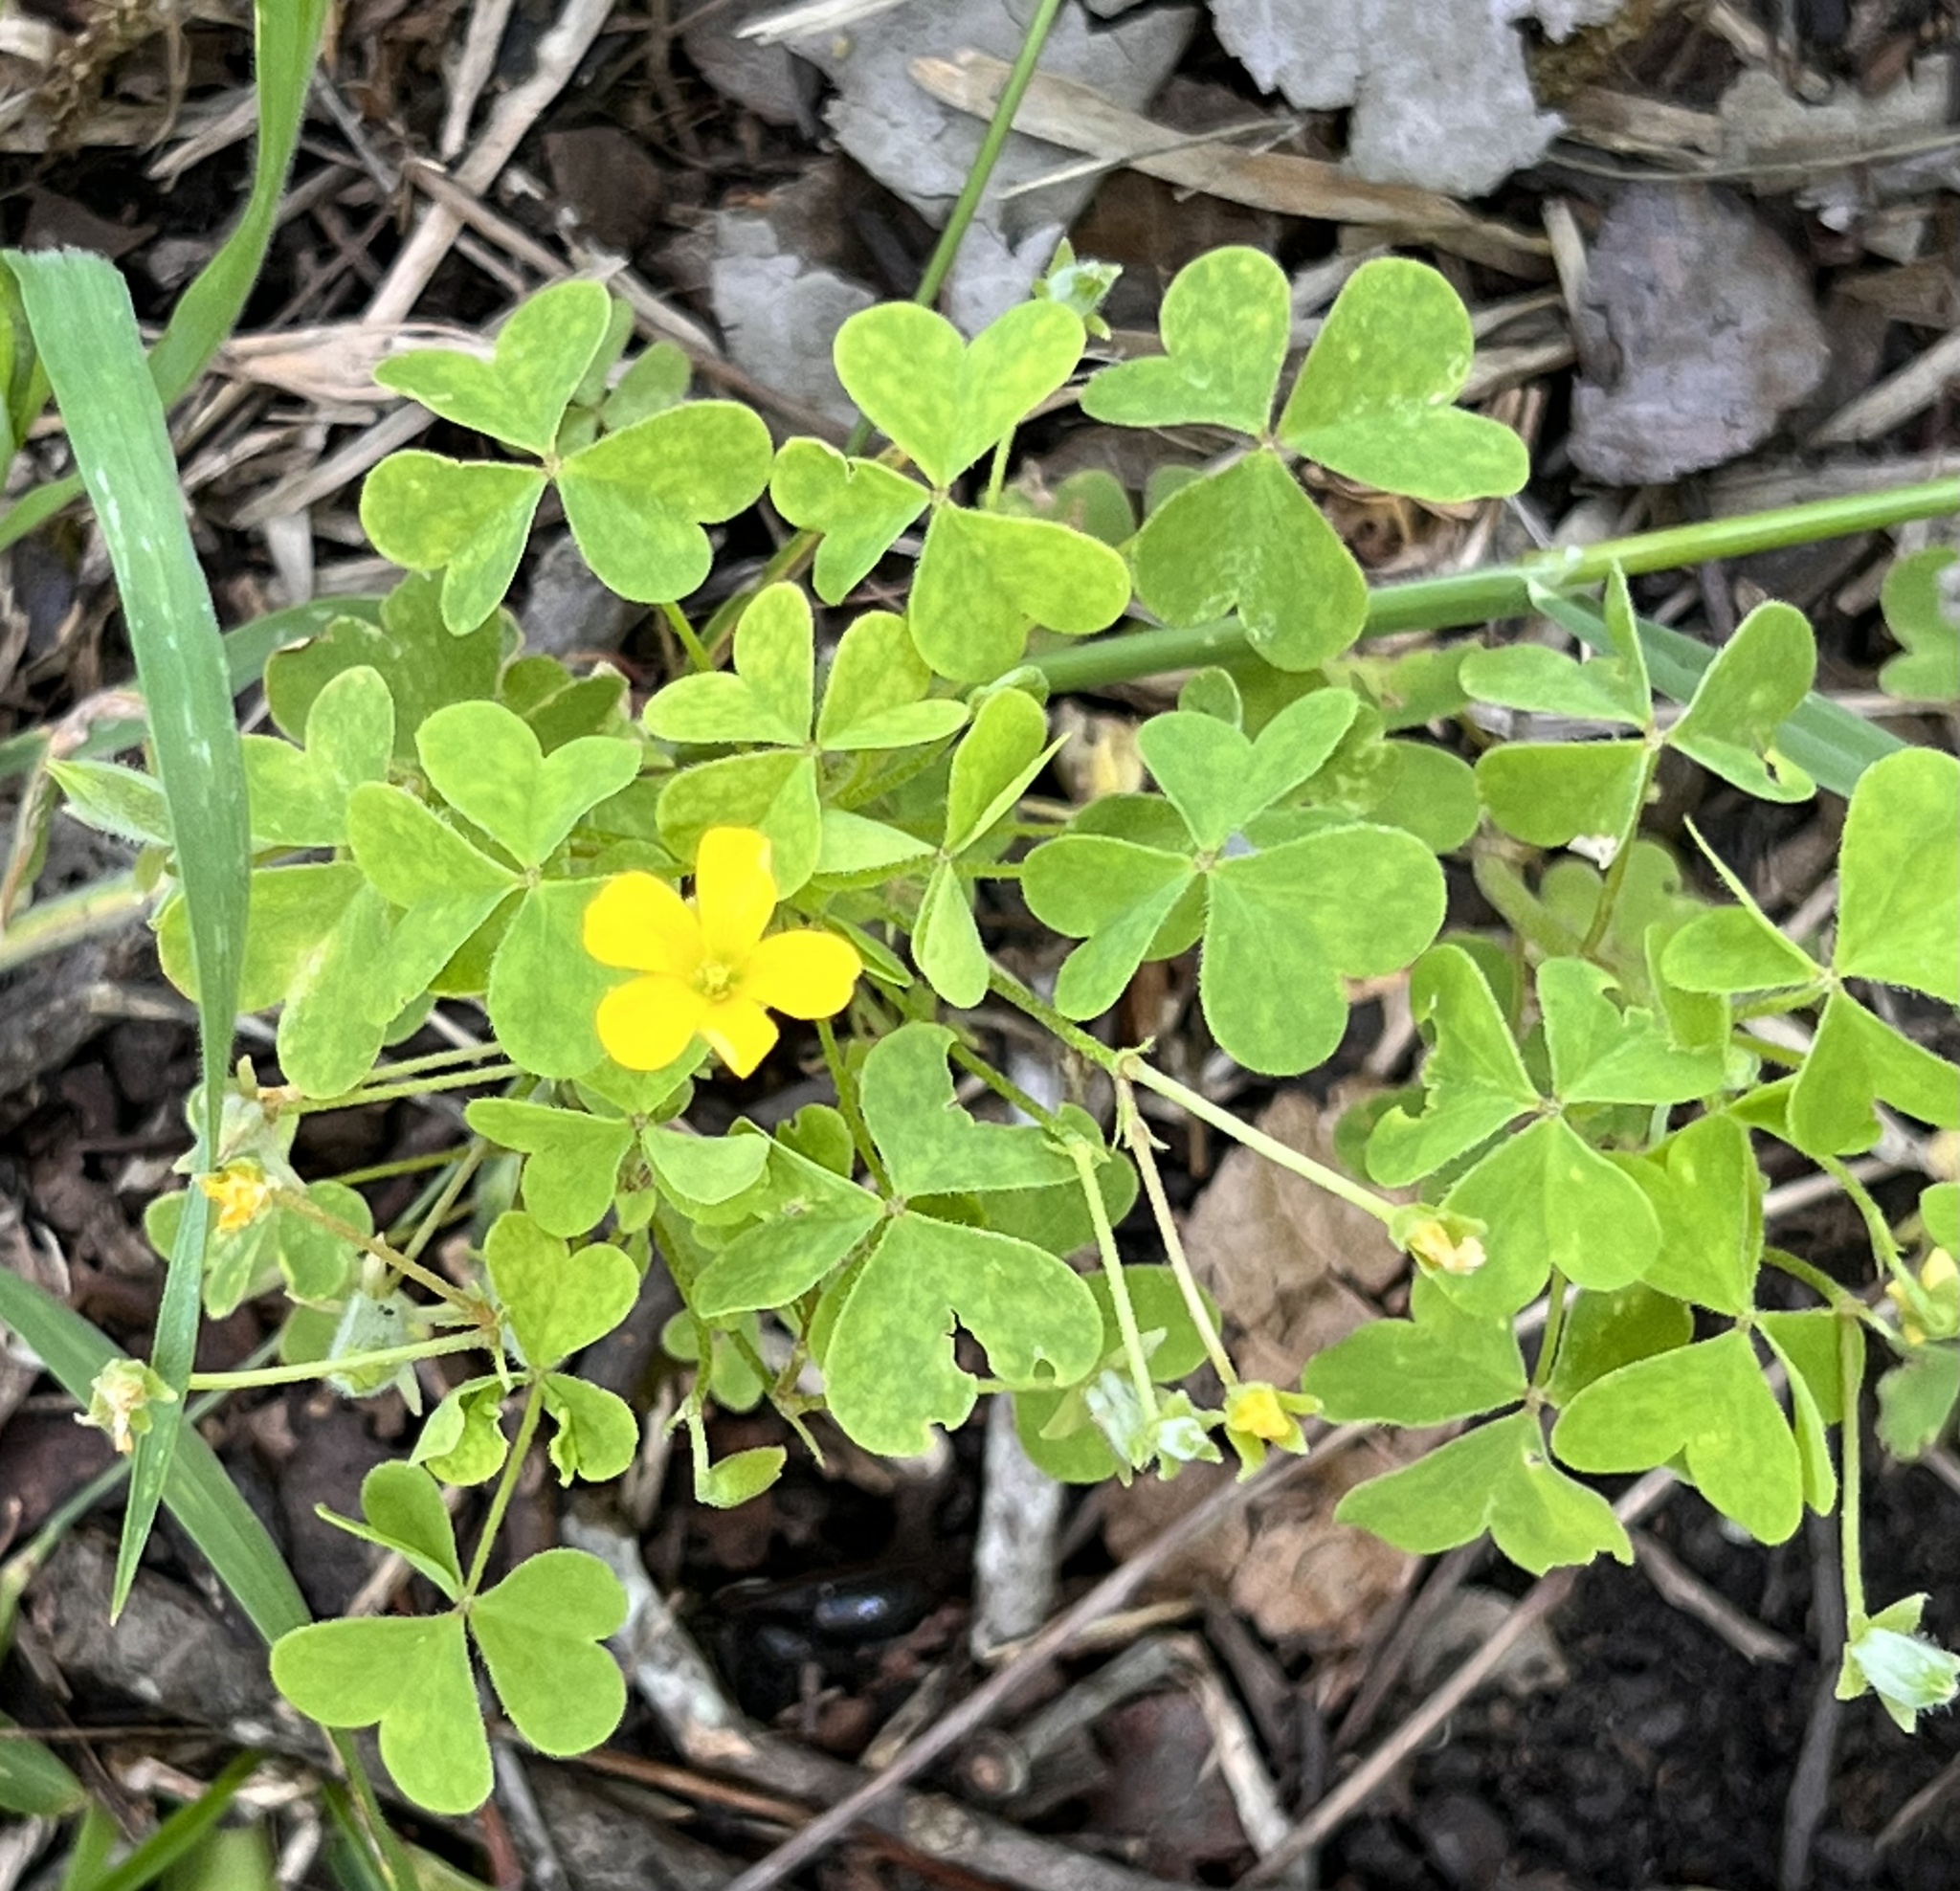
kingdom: Plantae
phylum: Tracheophyta
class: Magnoliopsida
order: Oxalidales
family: Oxalidaceae
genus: Oxalis
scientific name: Oxalis dillenii
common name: Sussex yellow-sorrel
